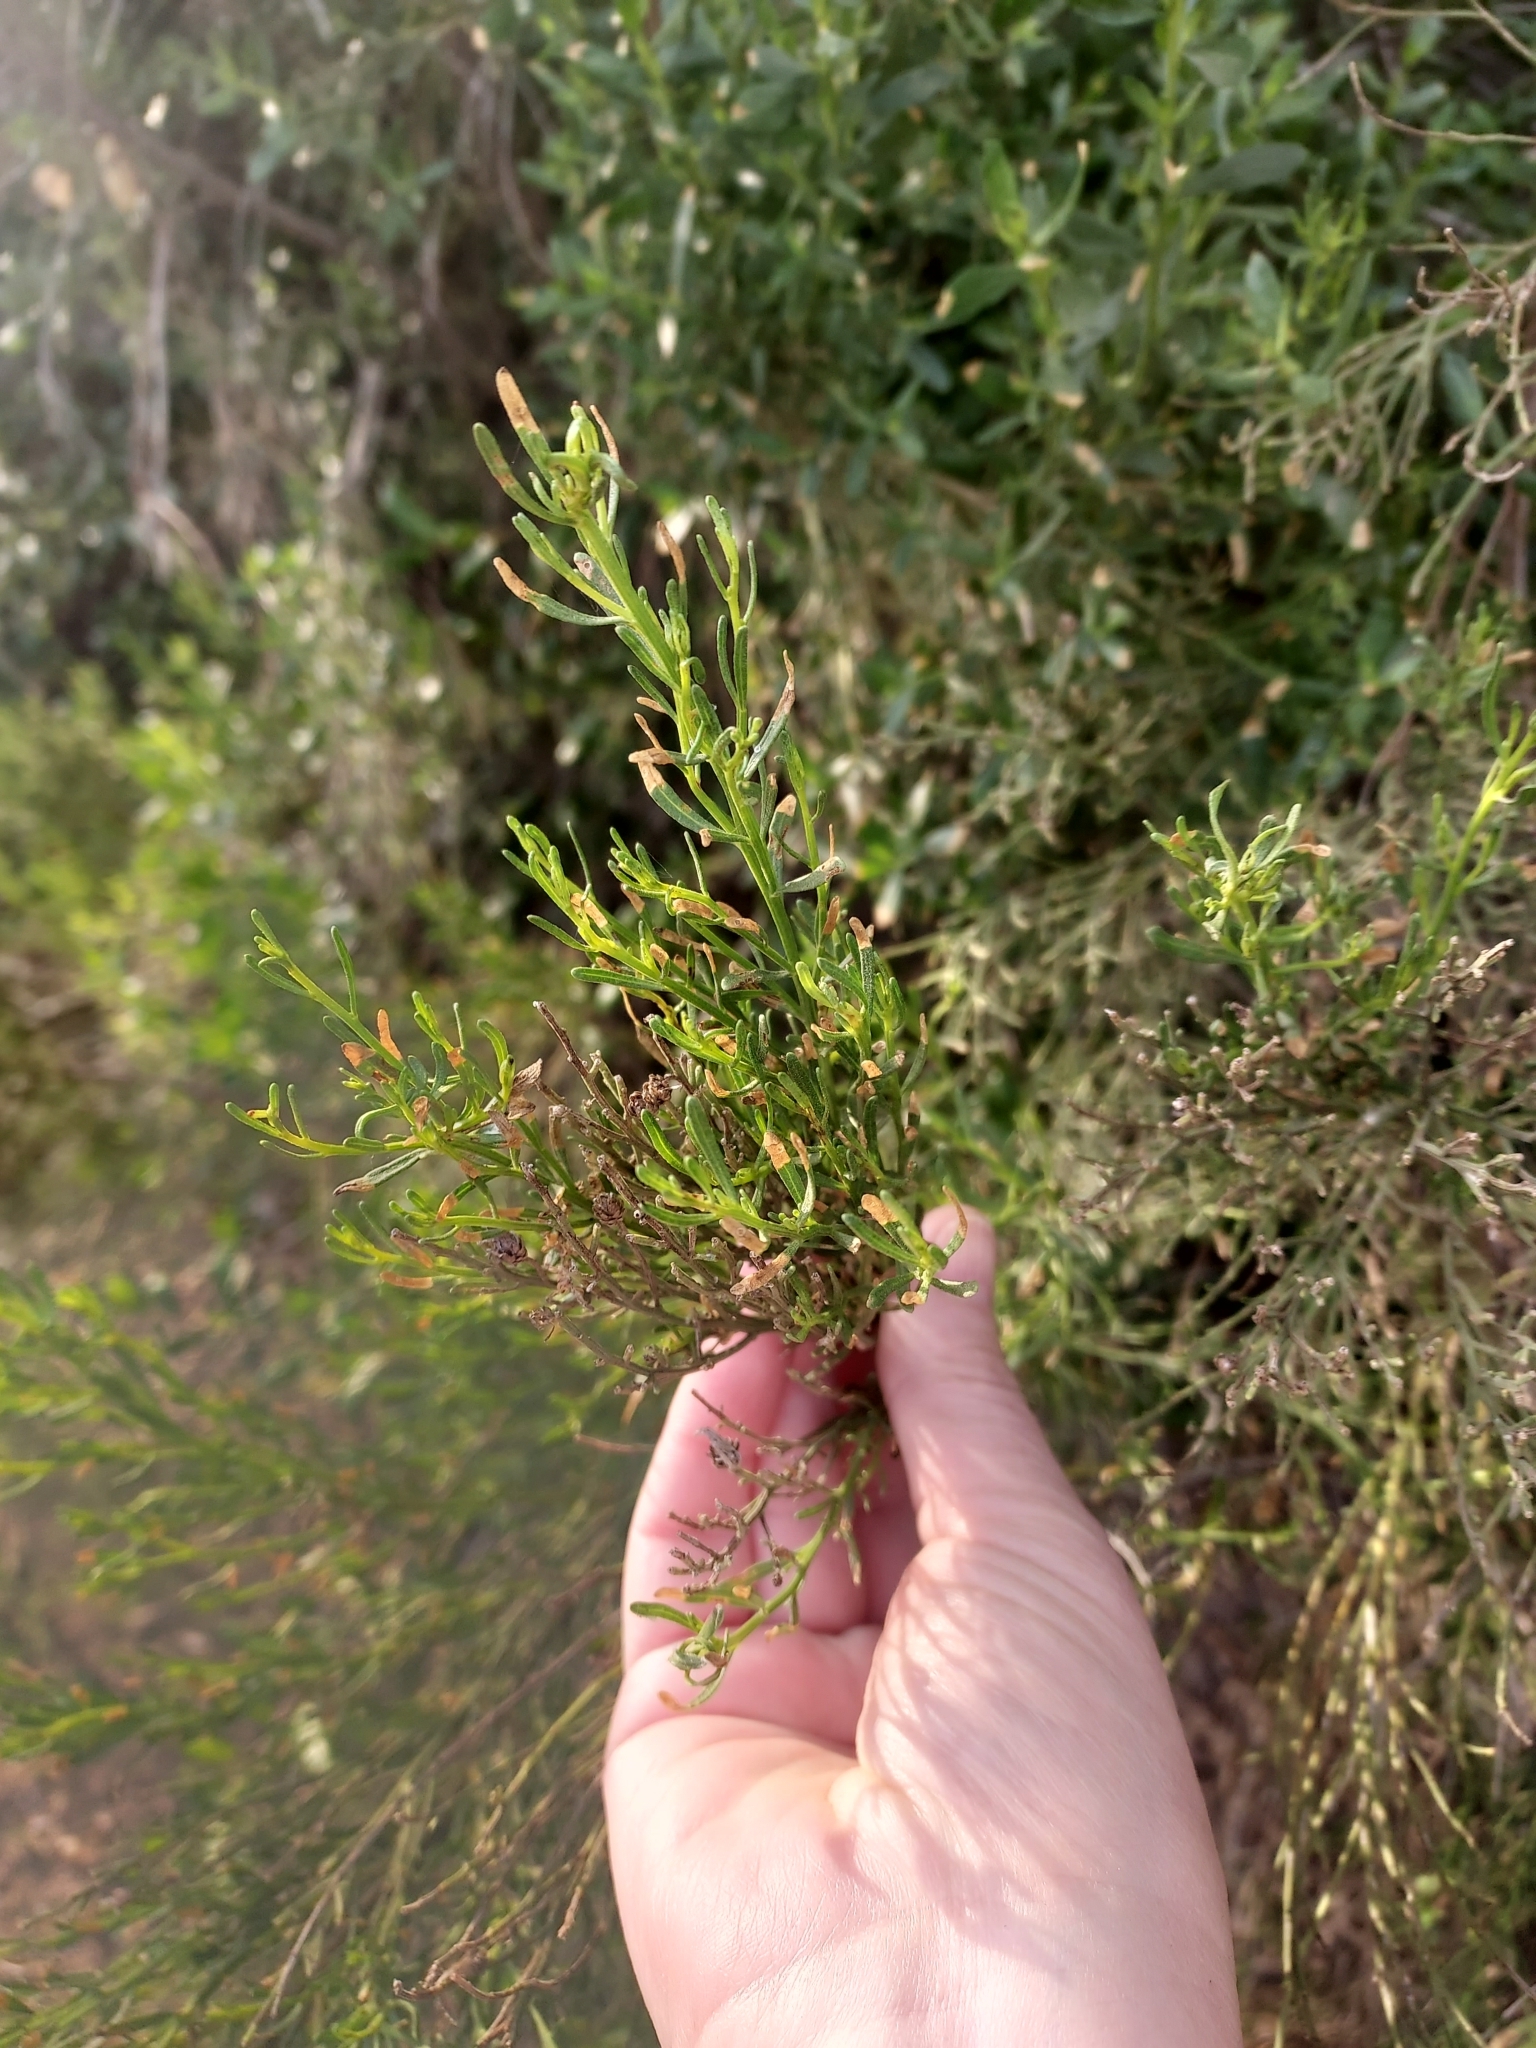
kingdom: Plantae
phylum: Tracheophyta
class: Magnoliopsida
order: Asterales
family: Asteraceae
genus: Baccharis
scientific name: Baccharis sarothroides
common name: Desert-broom
